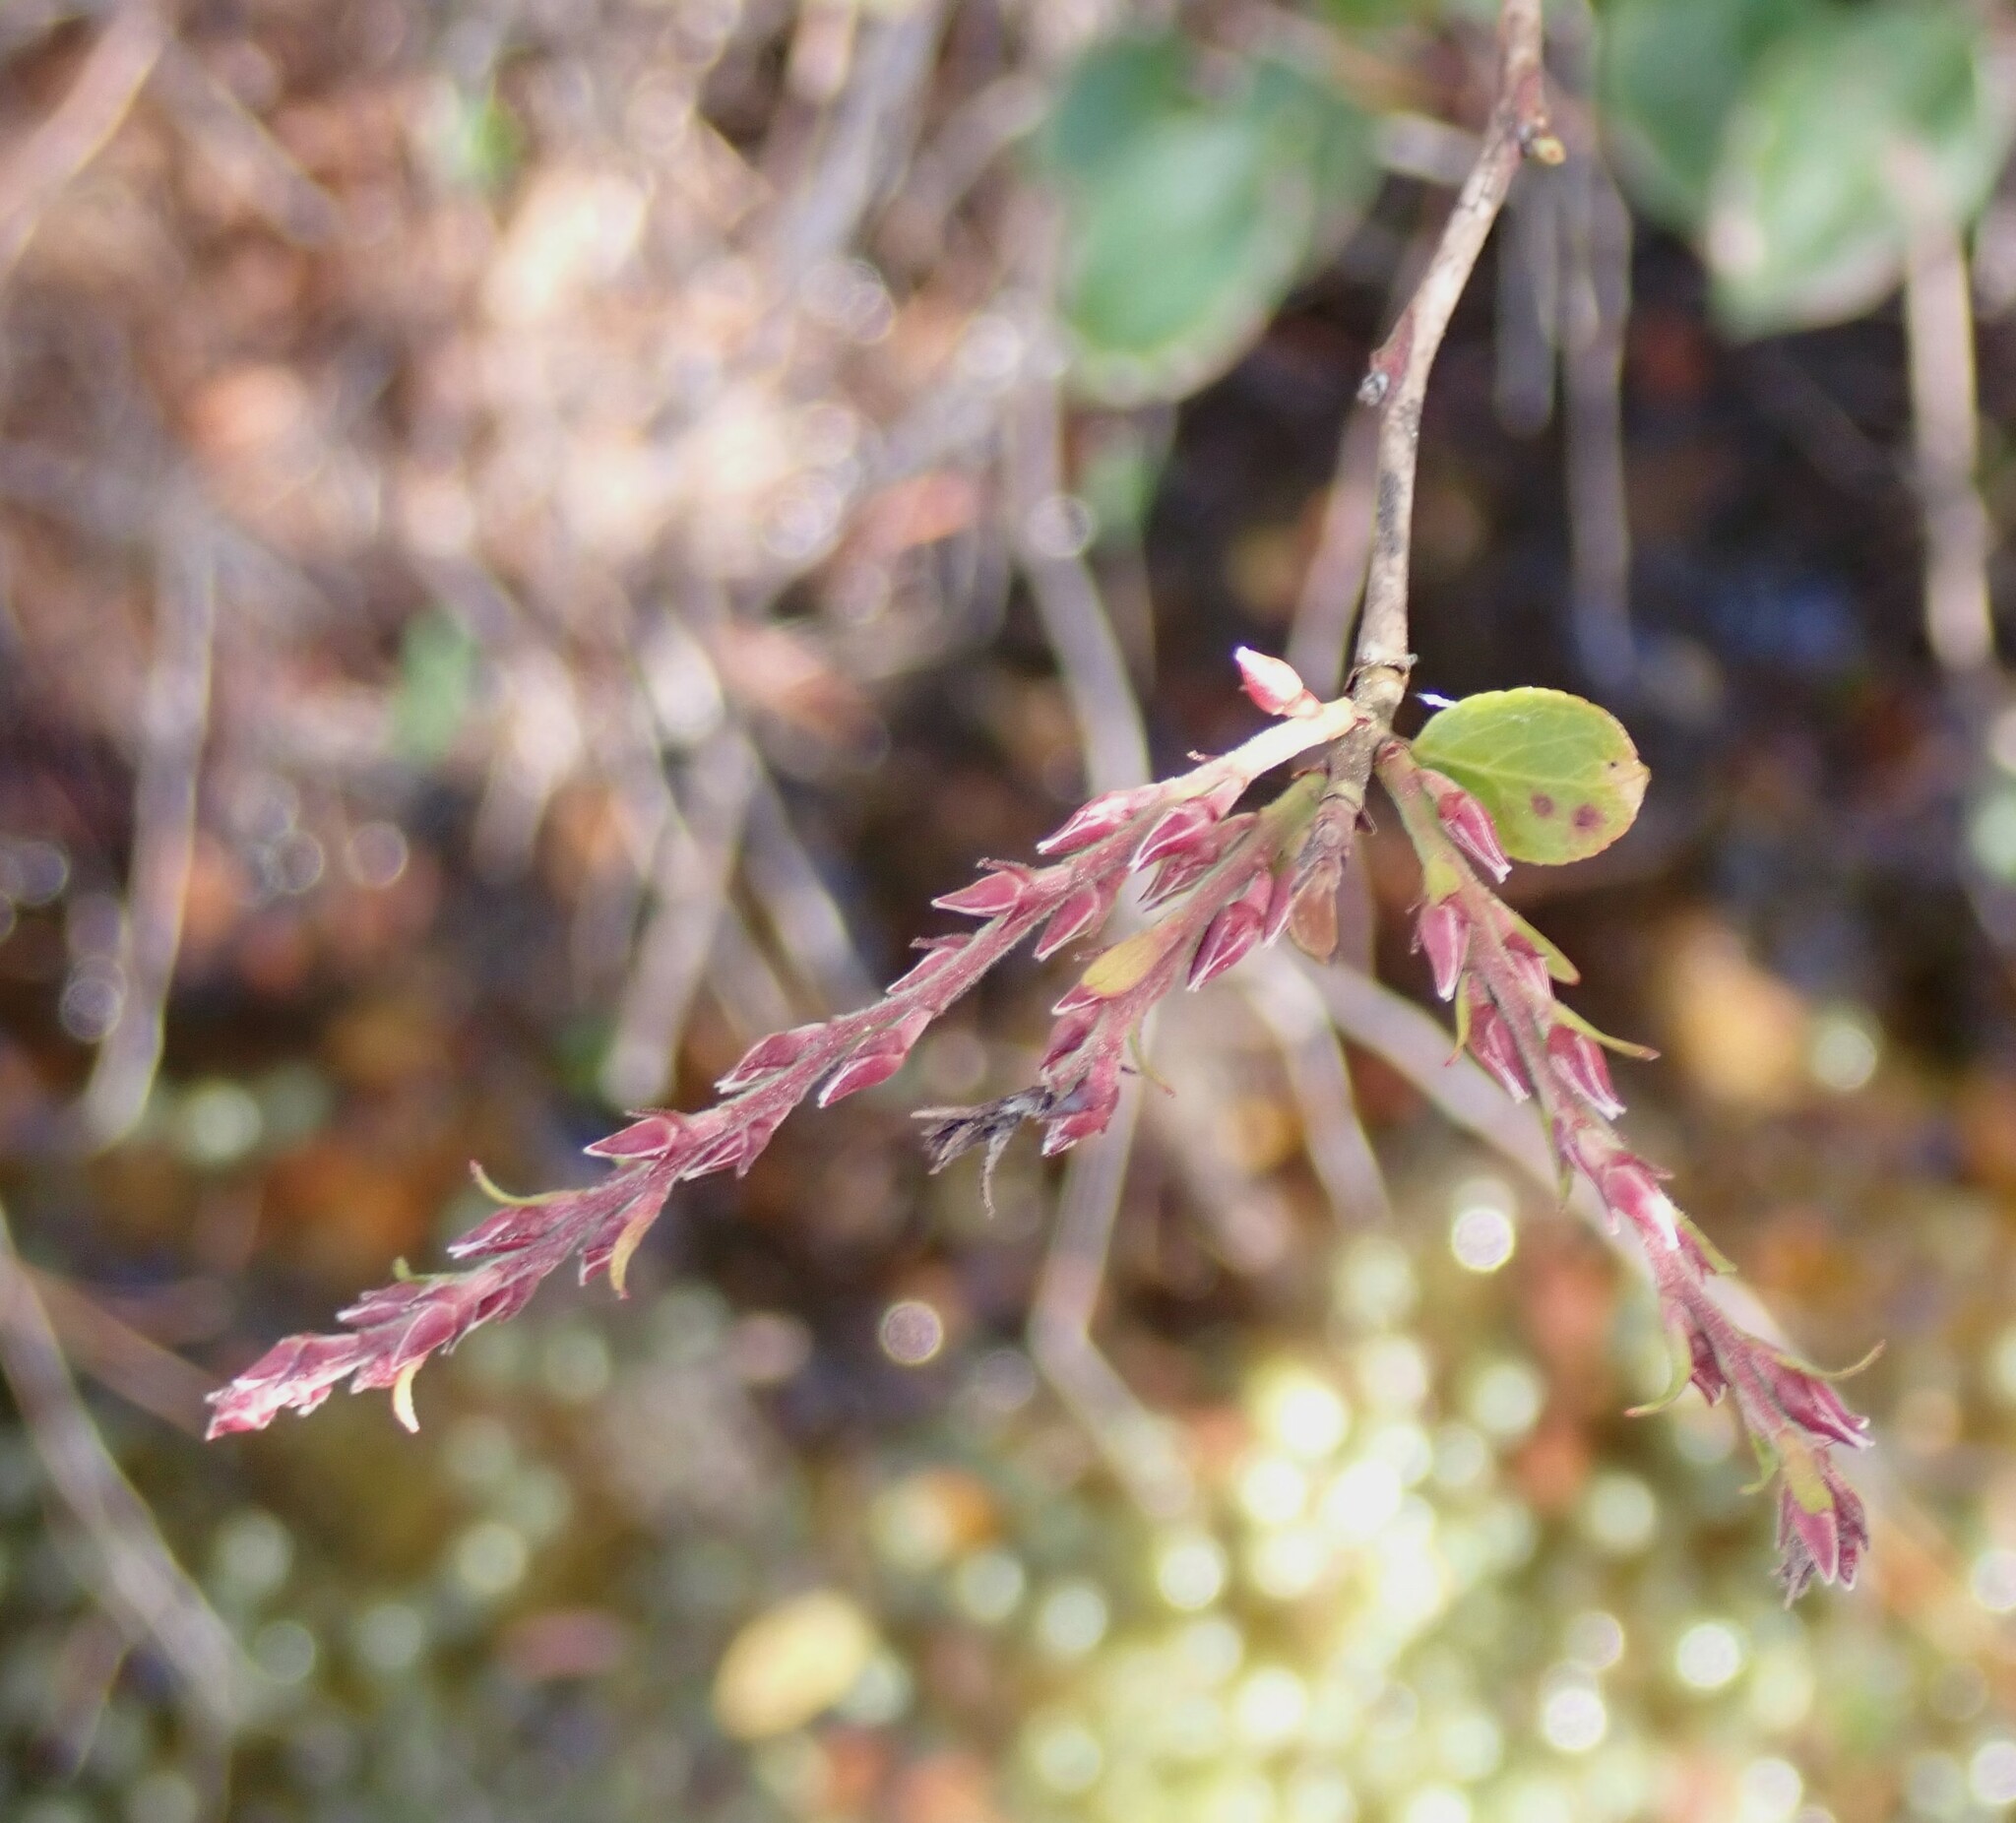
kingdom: Plantae
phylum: Tracheophyta
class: Magnoliopsida
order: Ericales
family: Ericaceae
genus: Eubotrys
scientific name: Eubotrys racemosa
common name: Fetterbush
